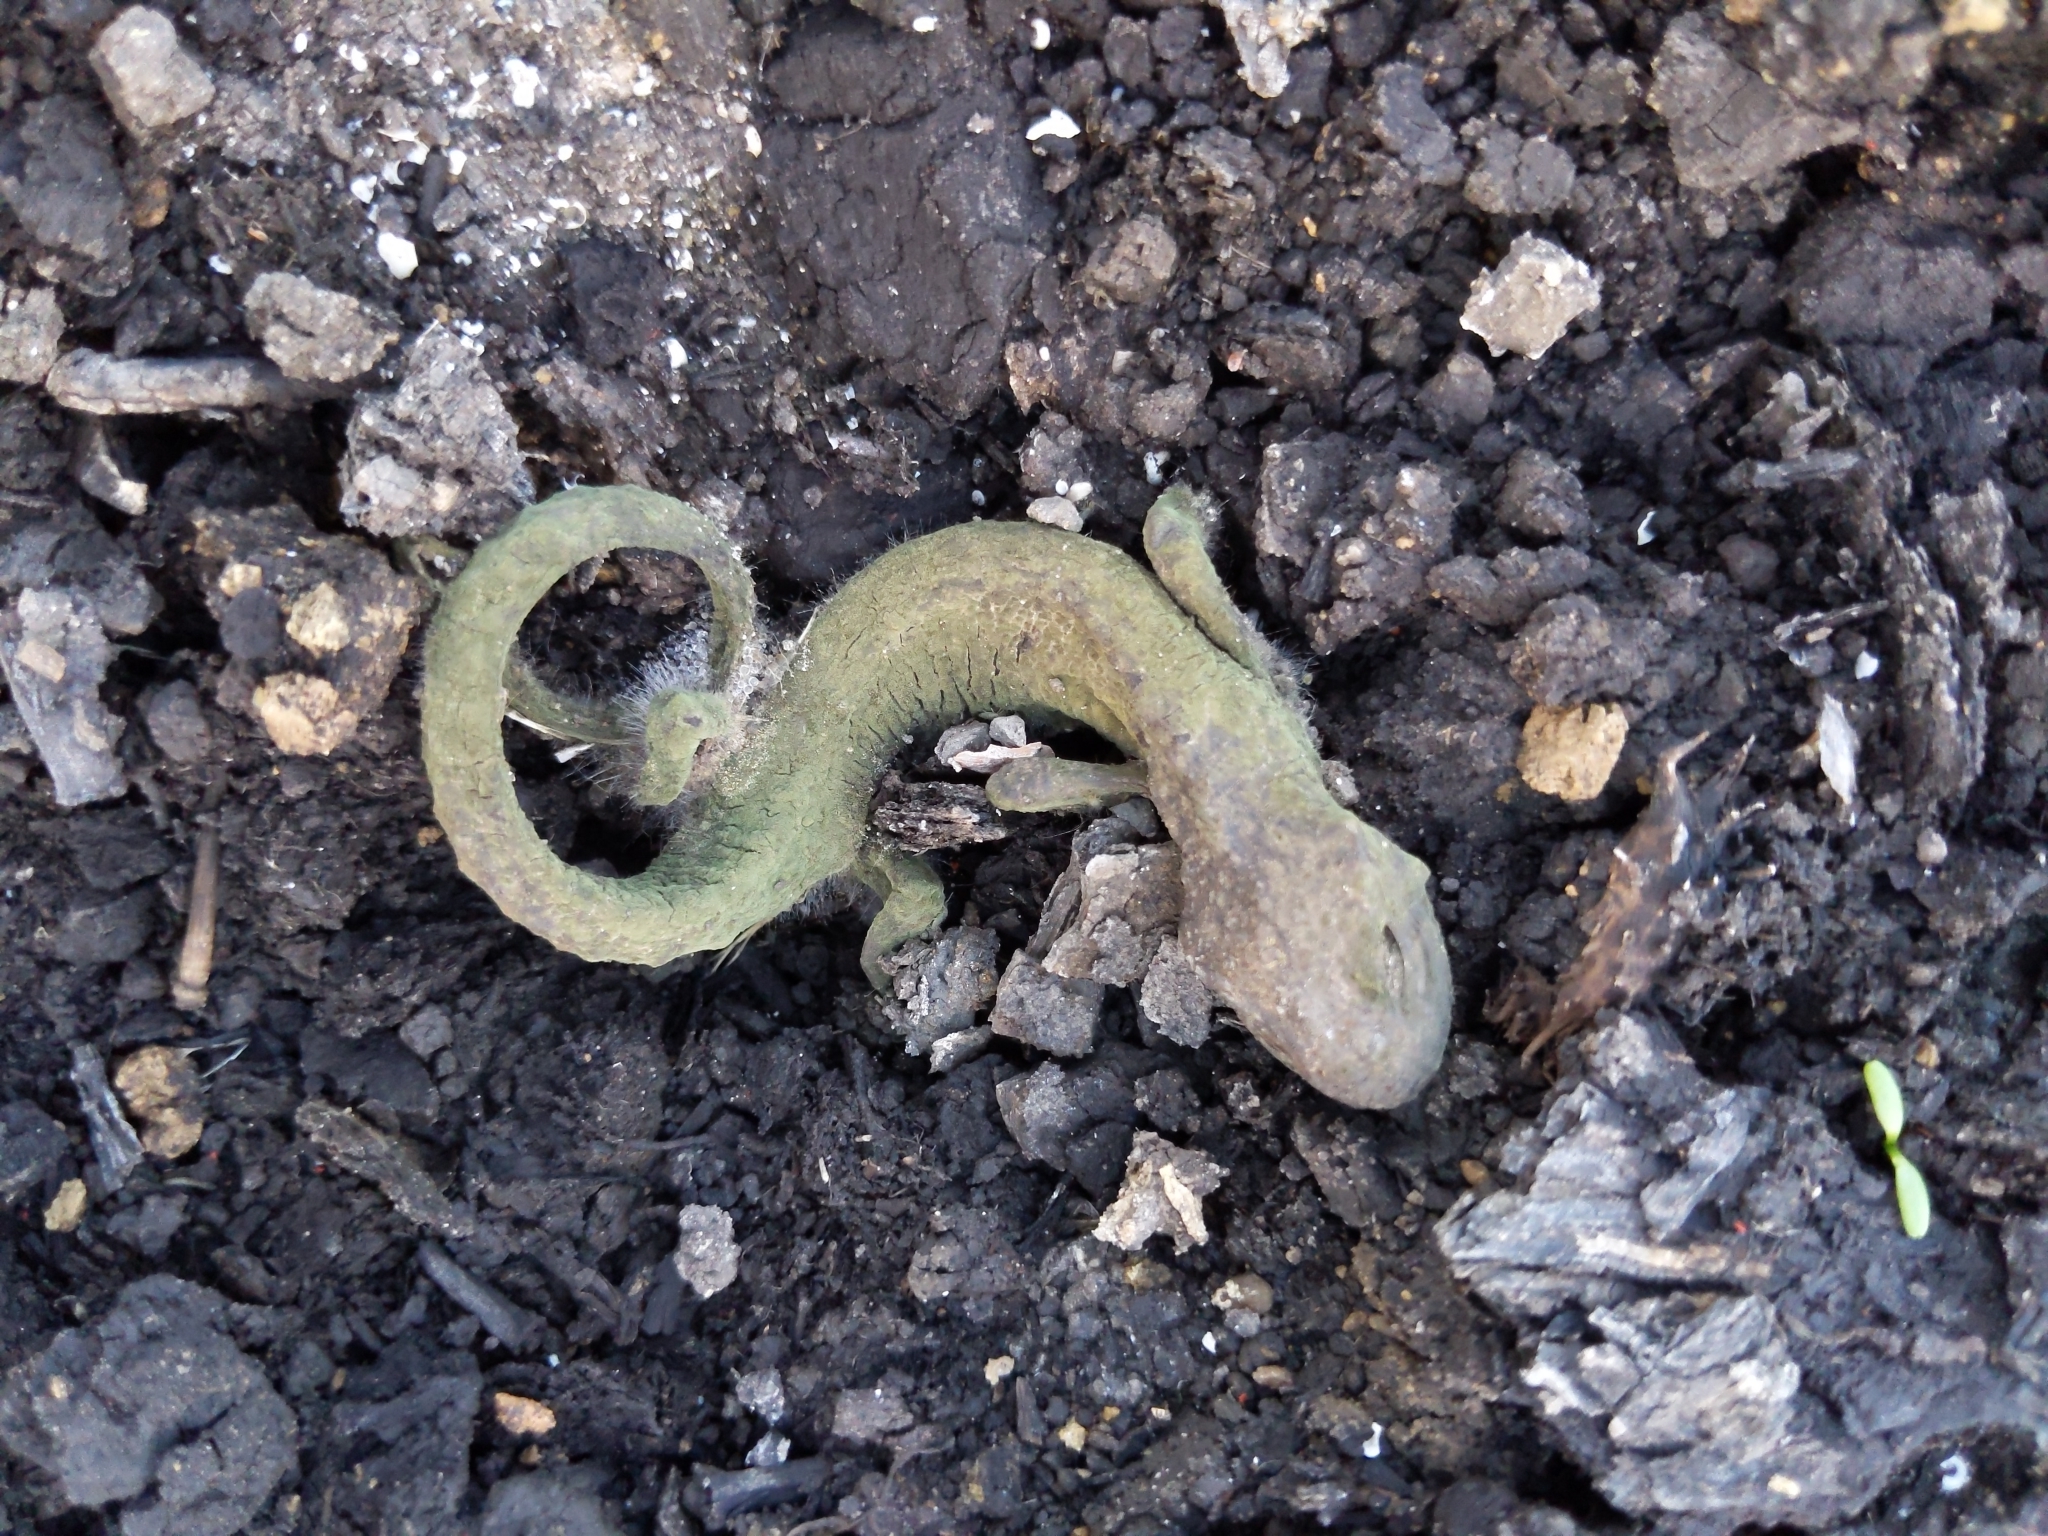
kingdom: Animalia
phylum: Chordata
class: Amphibia
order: Caudata
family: Salamandridae
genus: Taricha
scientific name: Taricha
